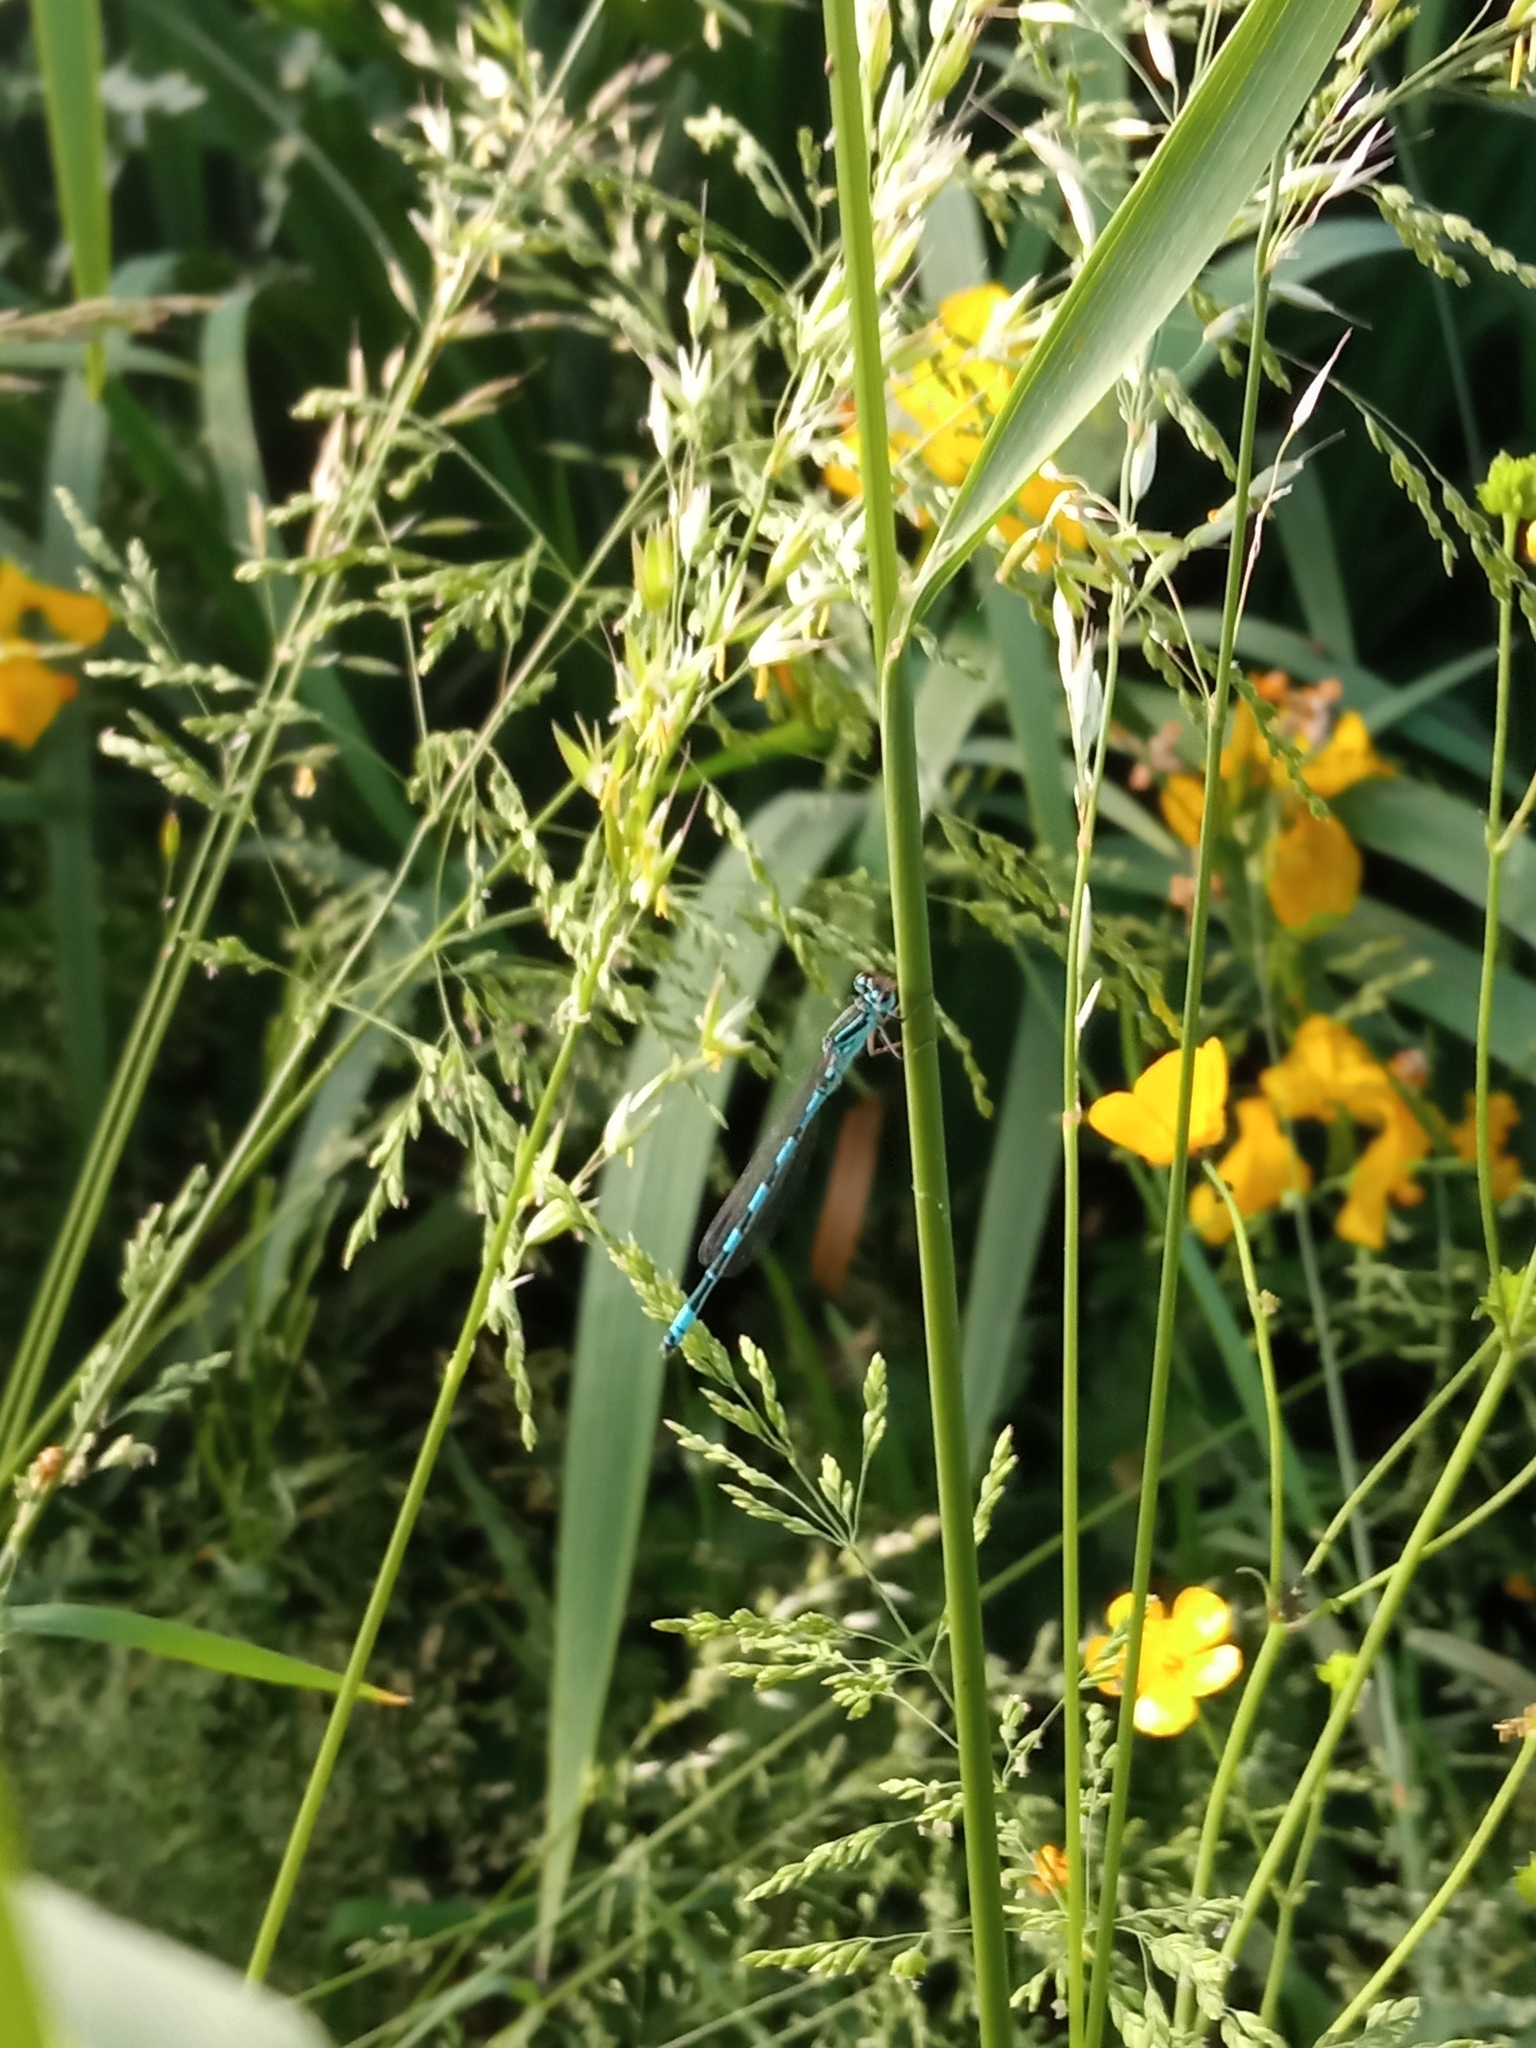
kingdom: Animalia
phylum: Arthropoda
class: Insecta
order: Odonata
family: Coenagrionidae
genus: Coenagrion
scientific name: Coenagrion mercuriale
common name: Southern damselfly
